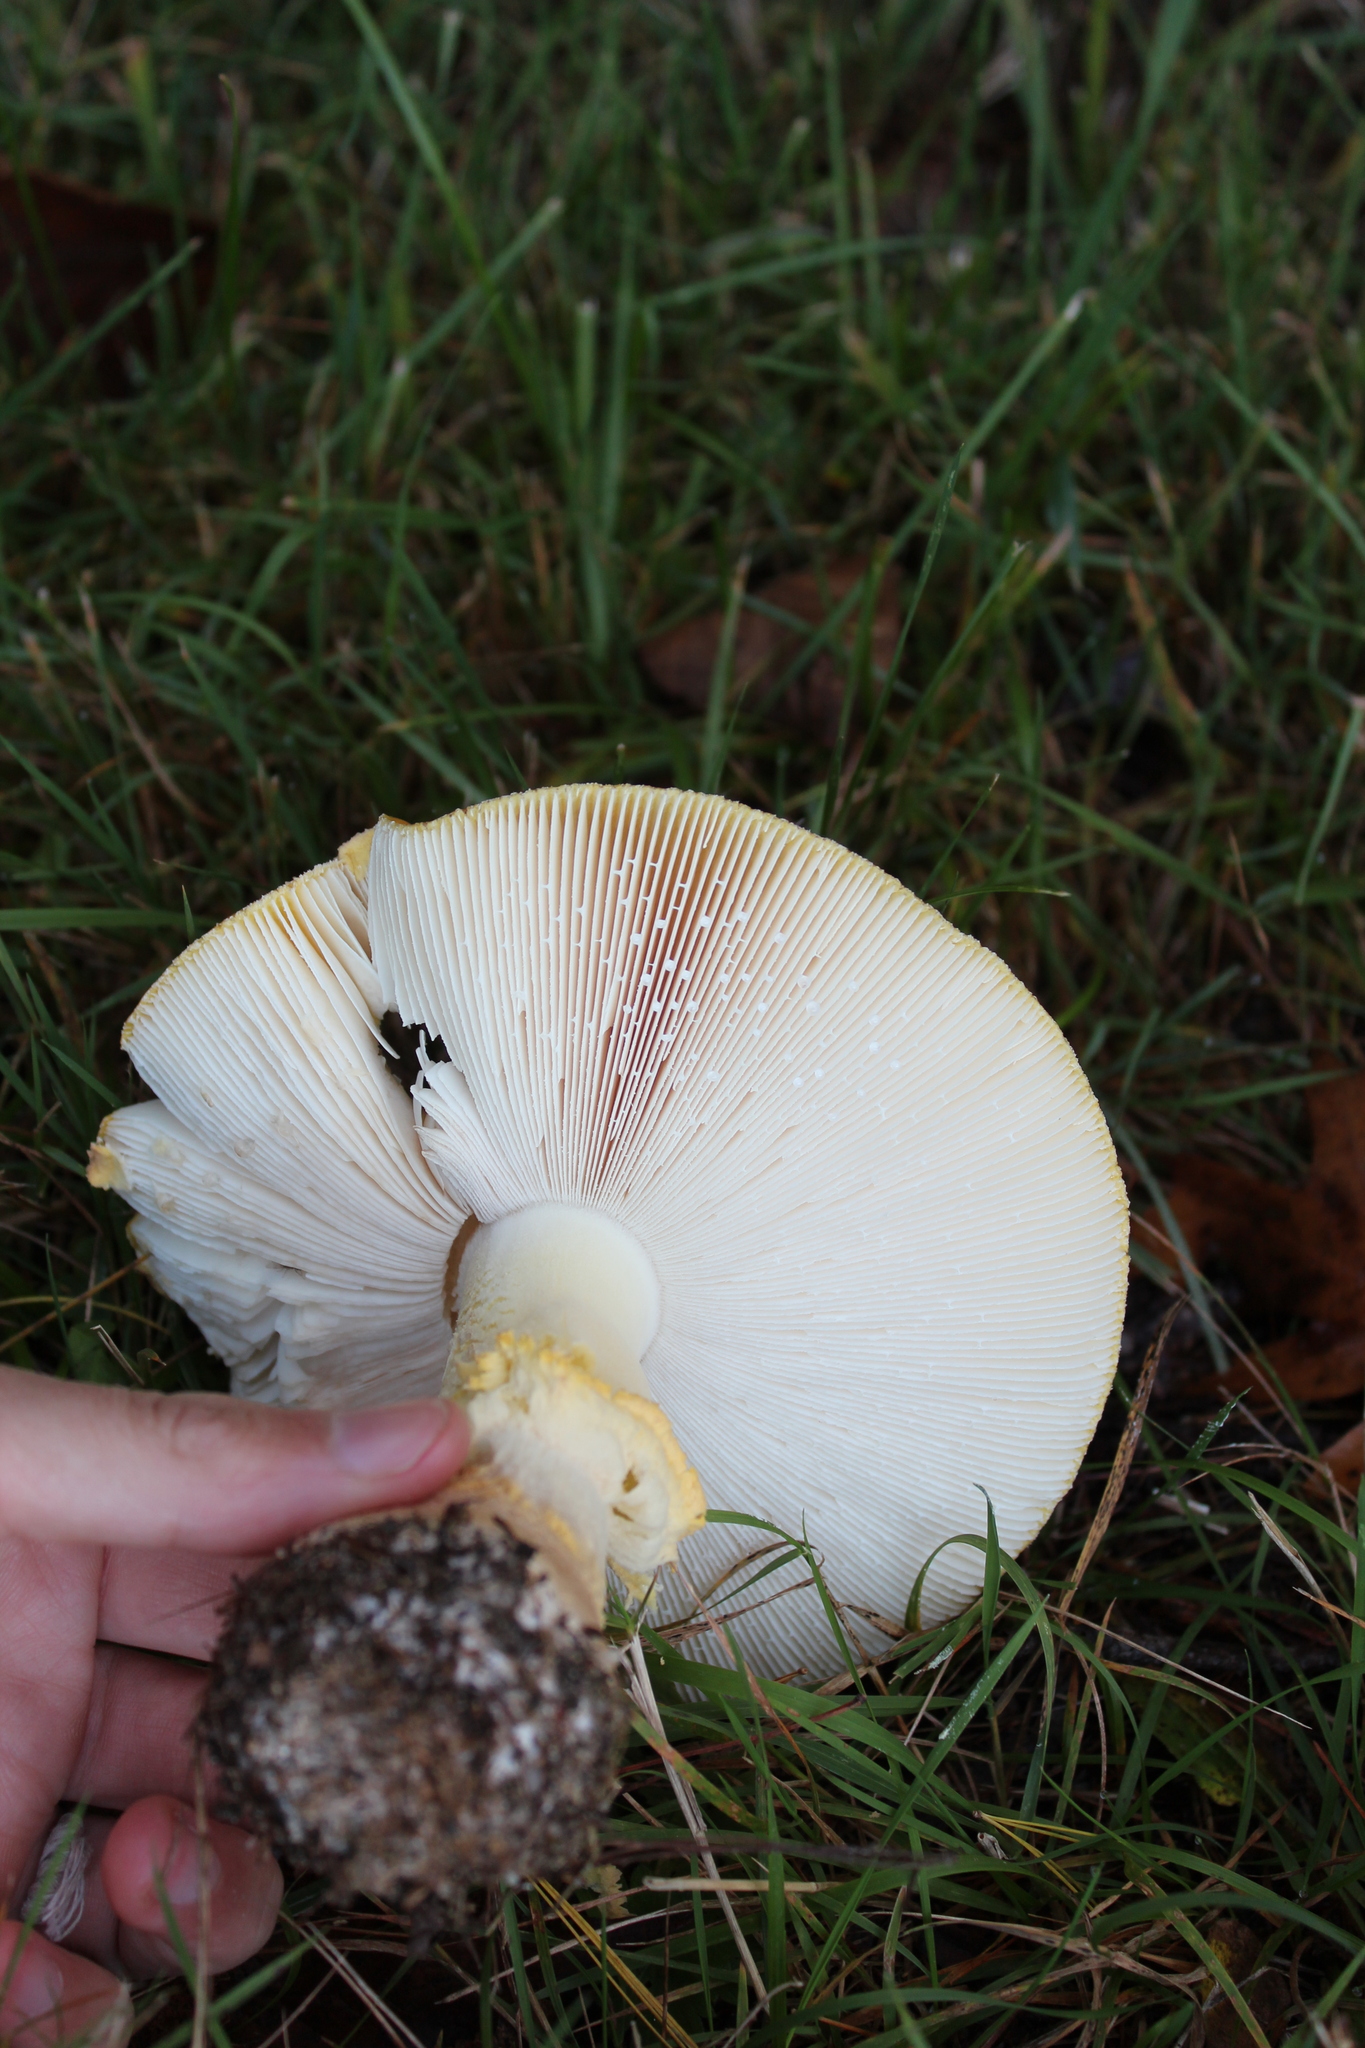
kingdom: Fungi
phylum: Basidiomycota
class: Agaricomycetes
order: Agaricales
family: Amanitaceae
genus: Amanita
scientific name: Amanita muscaria
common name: Fly agaric
